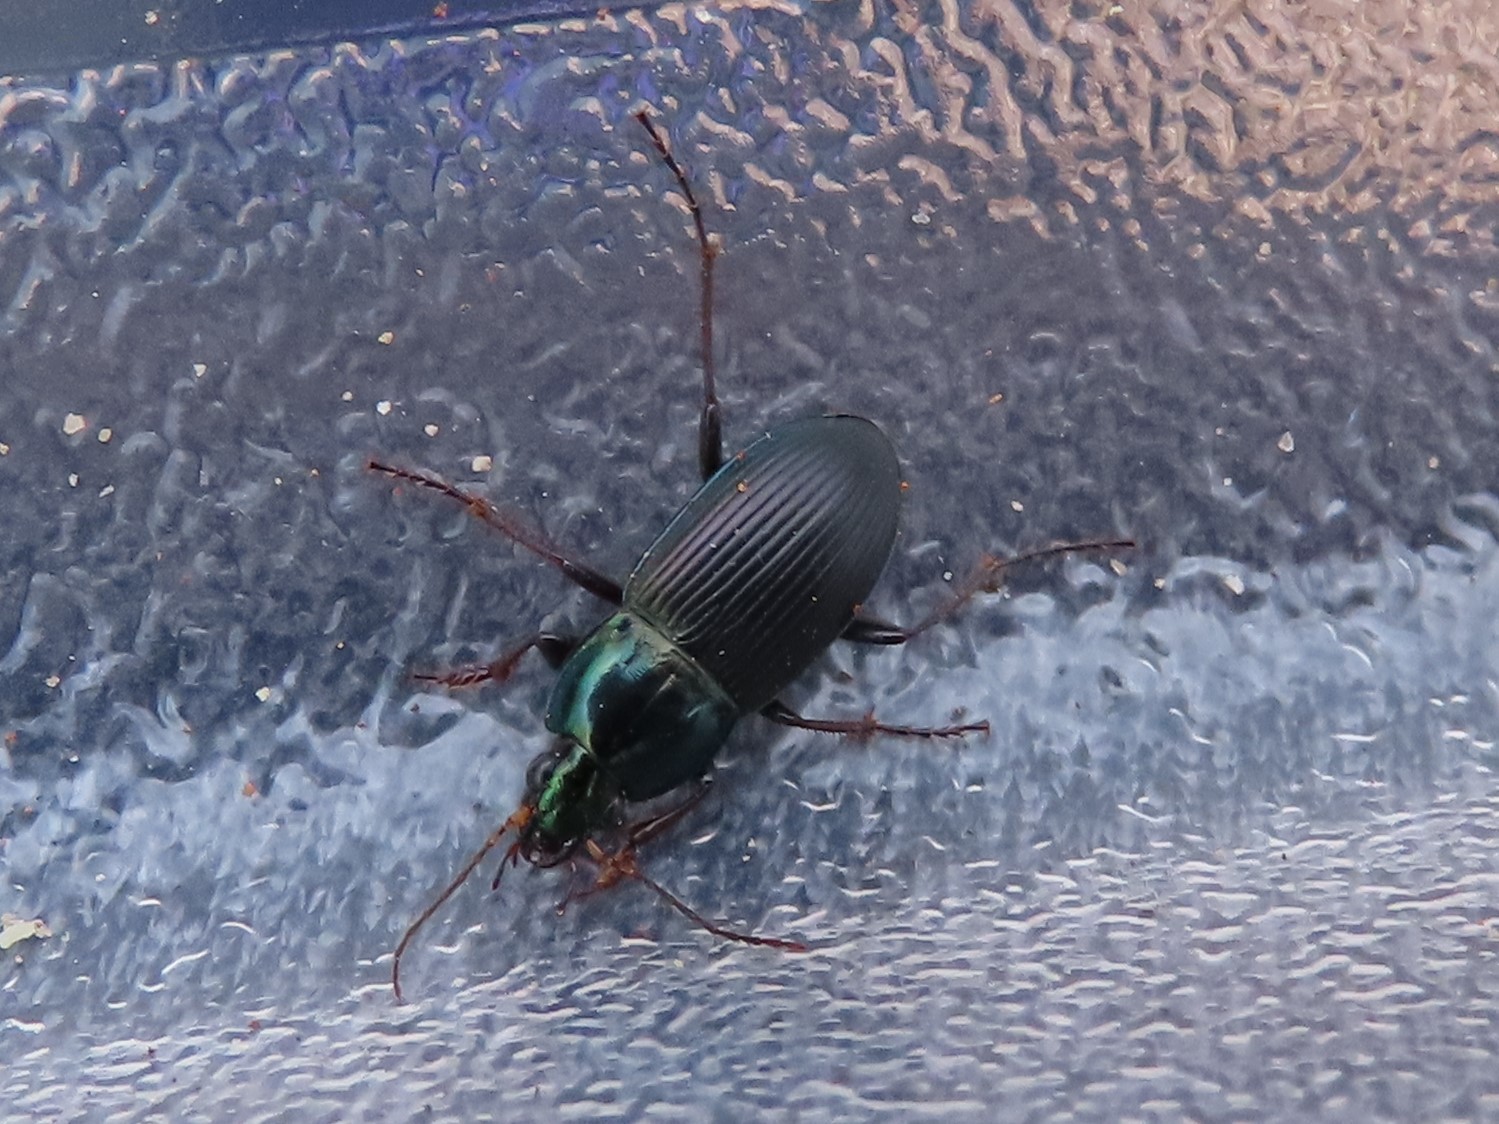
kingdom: Animalia
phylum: Arthropoda
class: Insecta
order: Coleoptera
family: Carabidae
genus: Poecilus
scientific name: Poecilus lucublandus
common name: Woodland ground beetle
